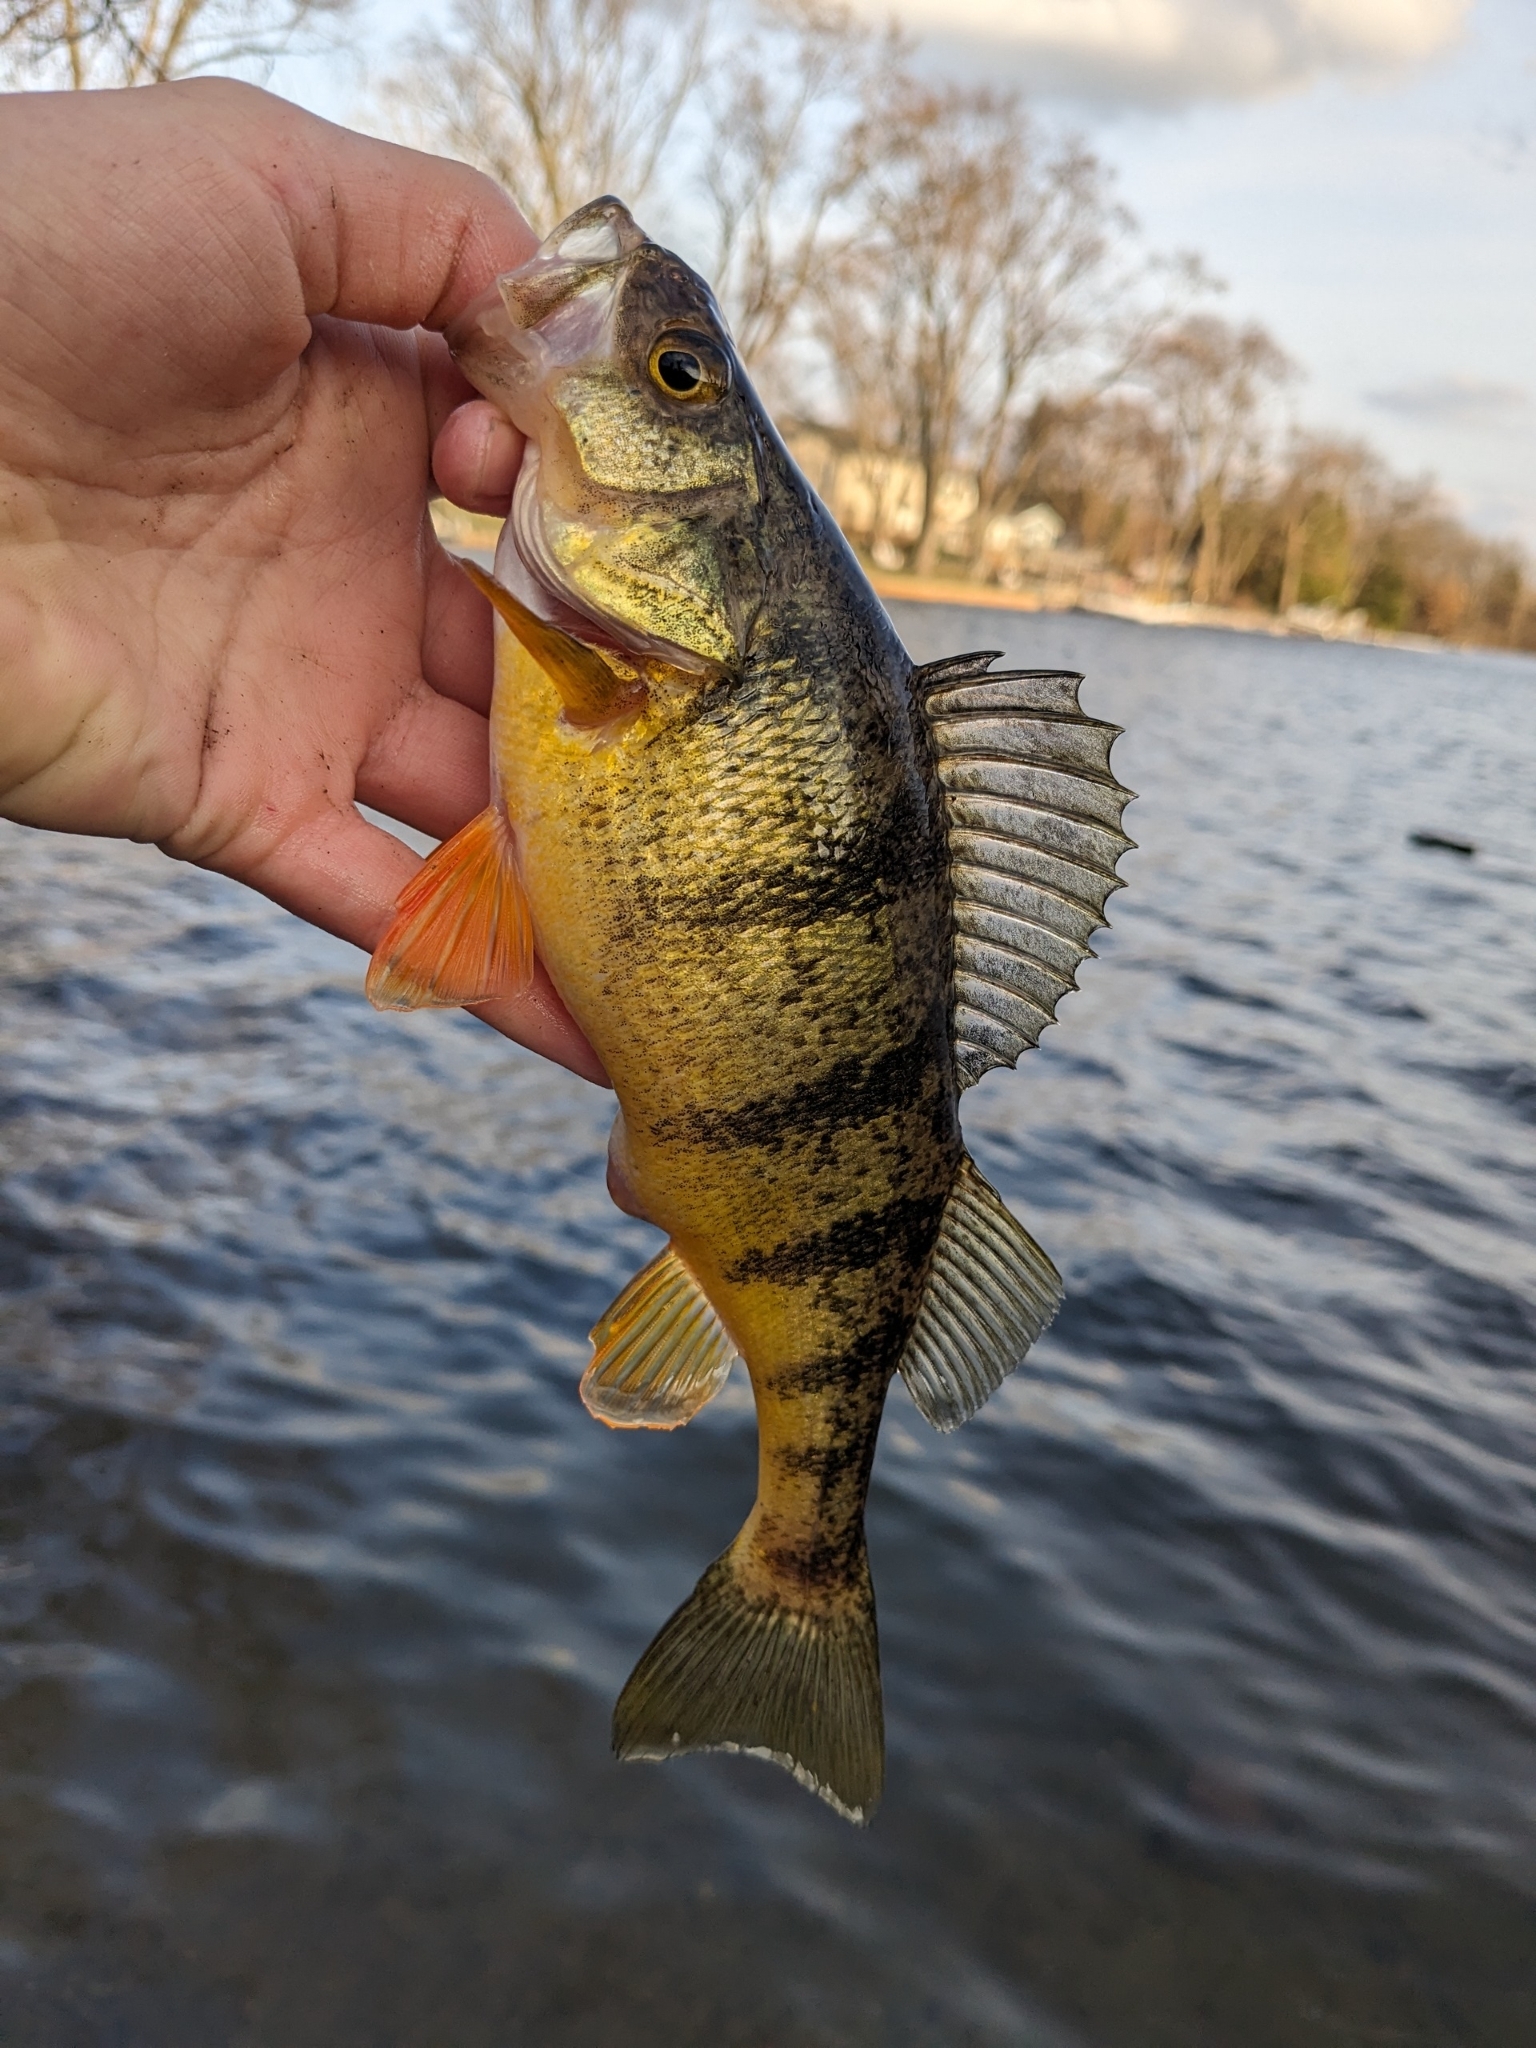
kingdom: Animalia
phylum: Chordata
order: Perciformes
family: Percidae
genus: Perca
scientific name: Perca flavescens
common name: Yellow perch
